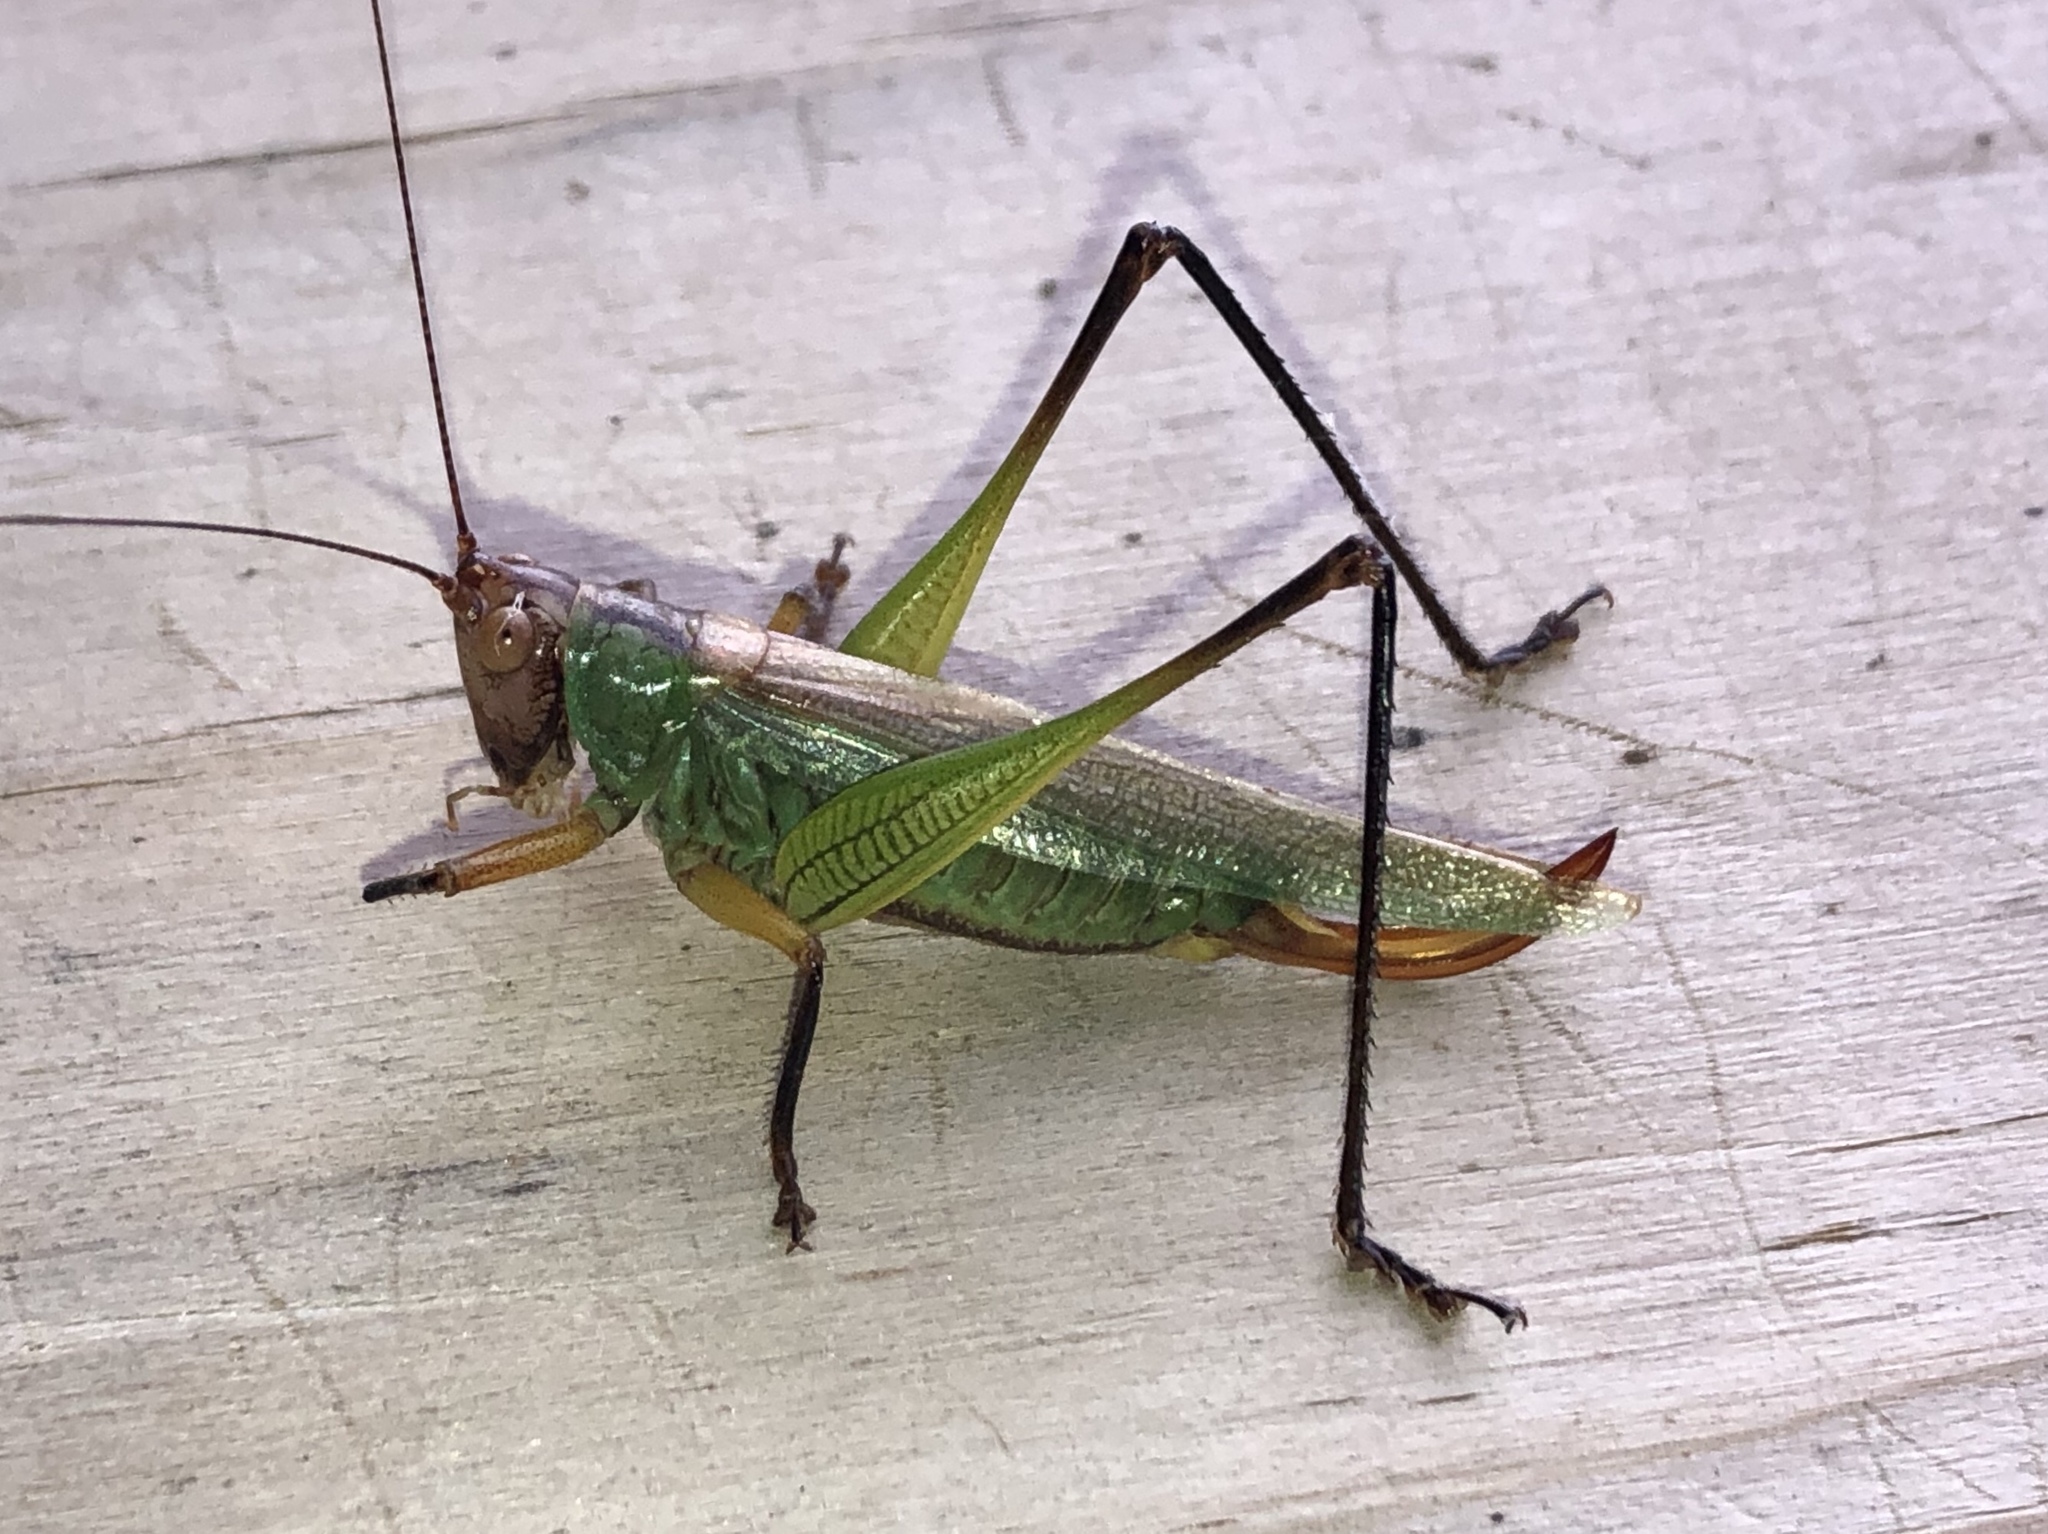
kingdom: Animalia
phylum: Arthropoda
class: Insecta
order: Orthoptera
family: Tettigoniidae
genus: Orchelimum
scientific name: Orchelimum nigripes
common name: Black-legged meadow katydid
